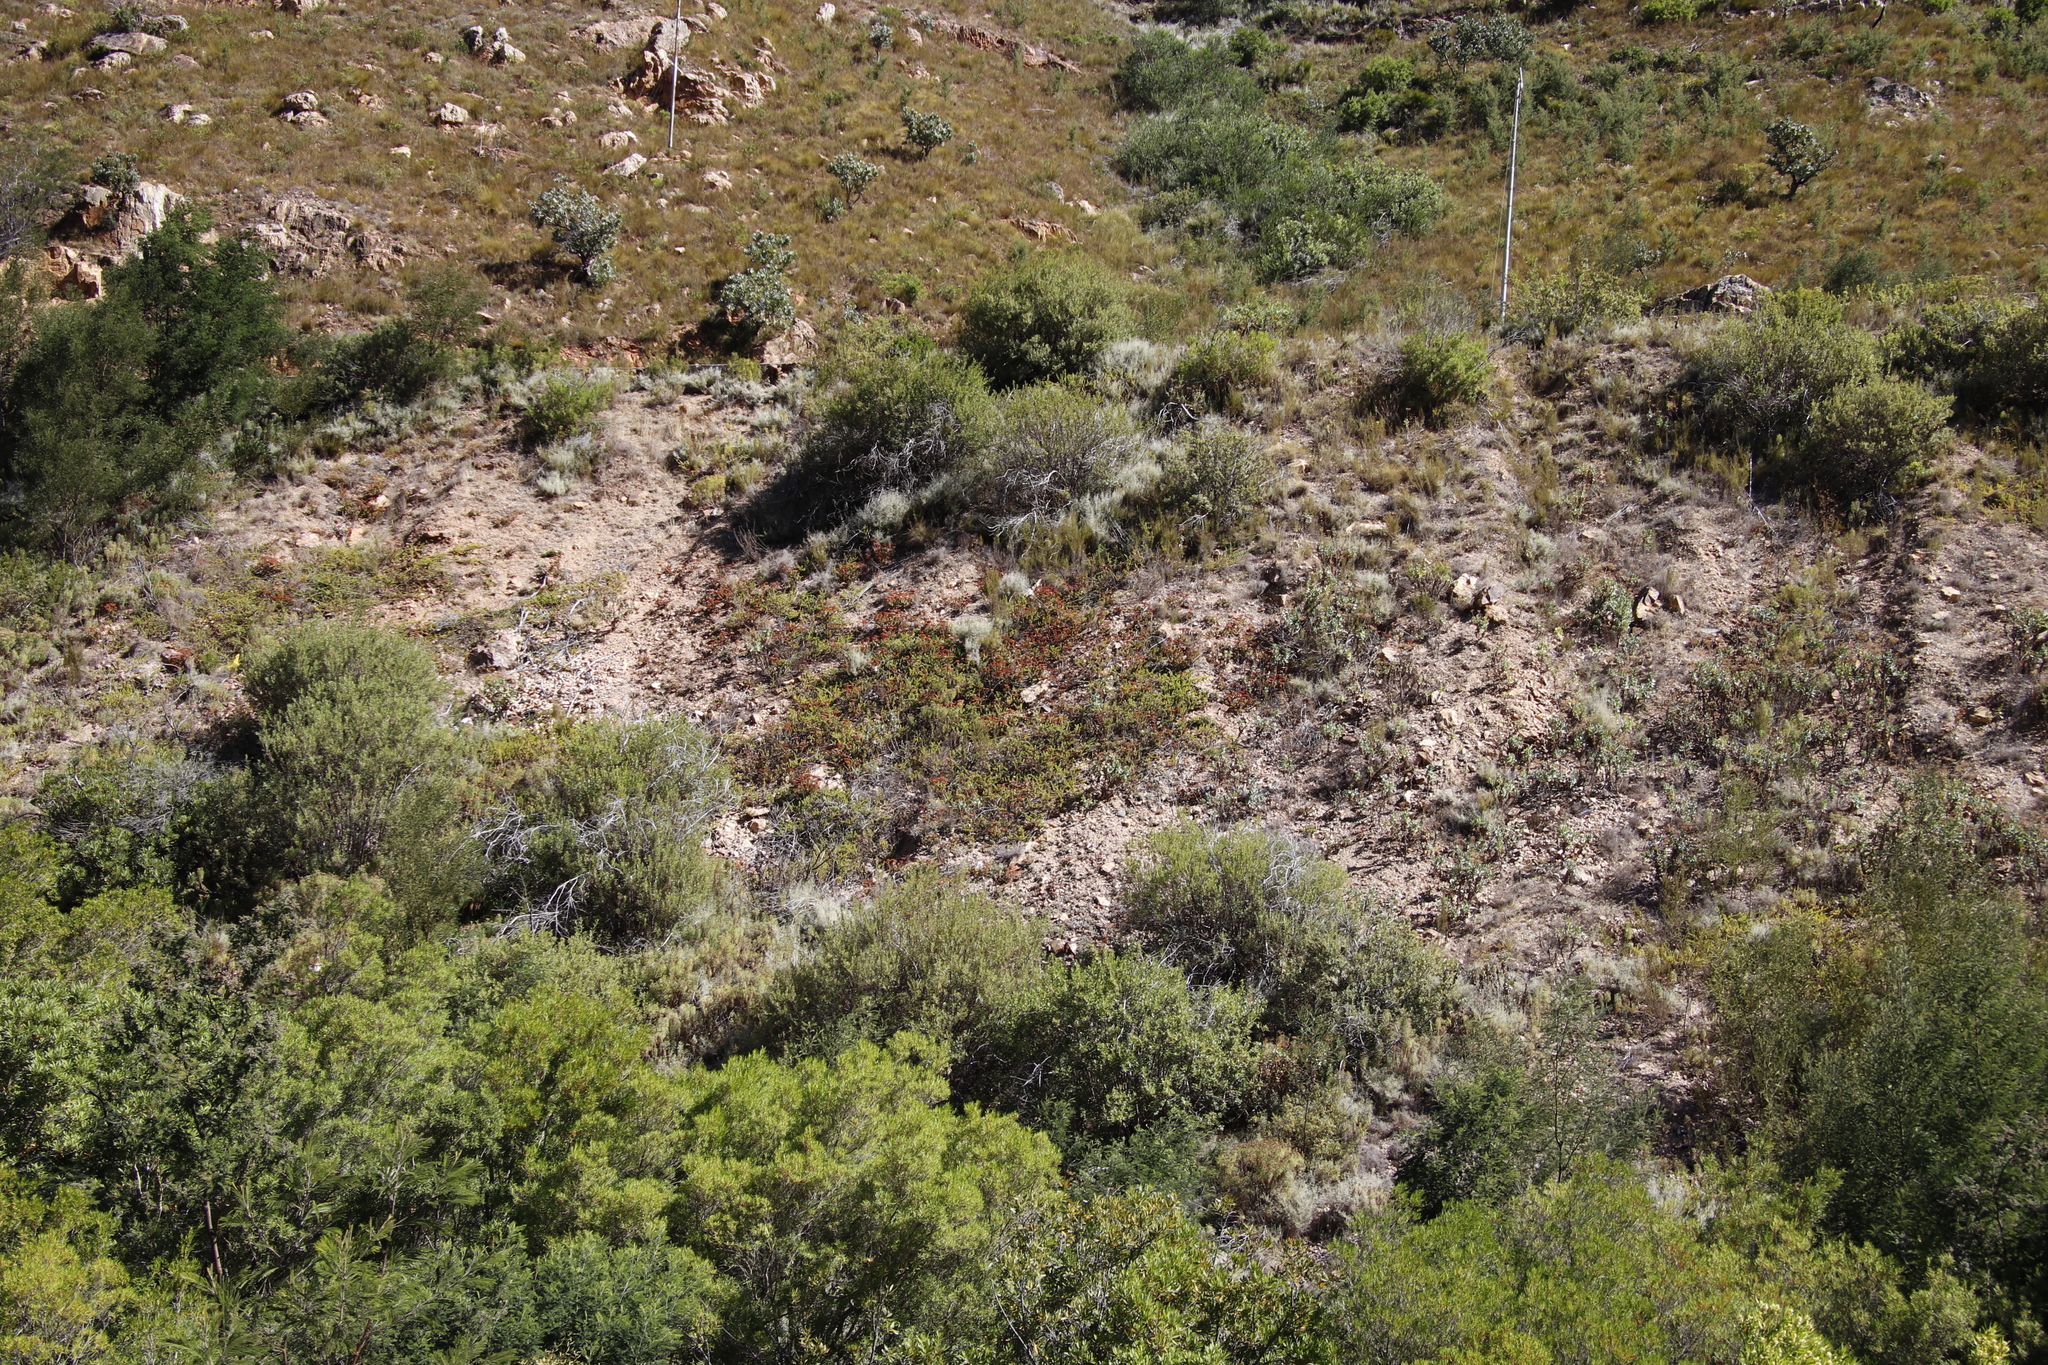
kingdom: Plantae
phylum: Tracheophyta
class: Magnoliopsida
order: Saxifragales
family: Crassulaceae
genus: Crassula
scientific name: Crassula undulata
